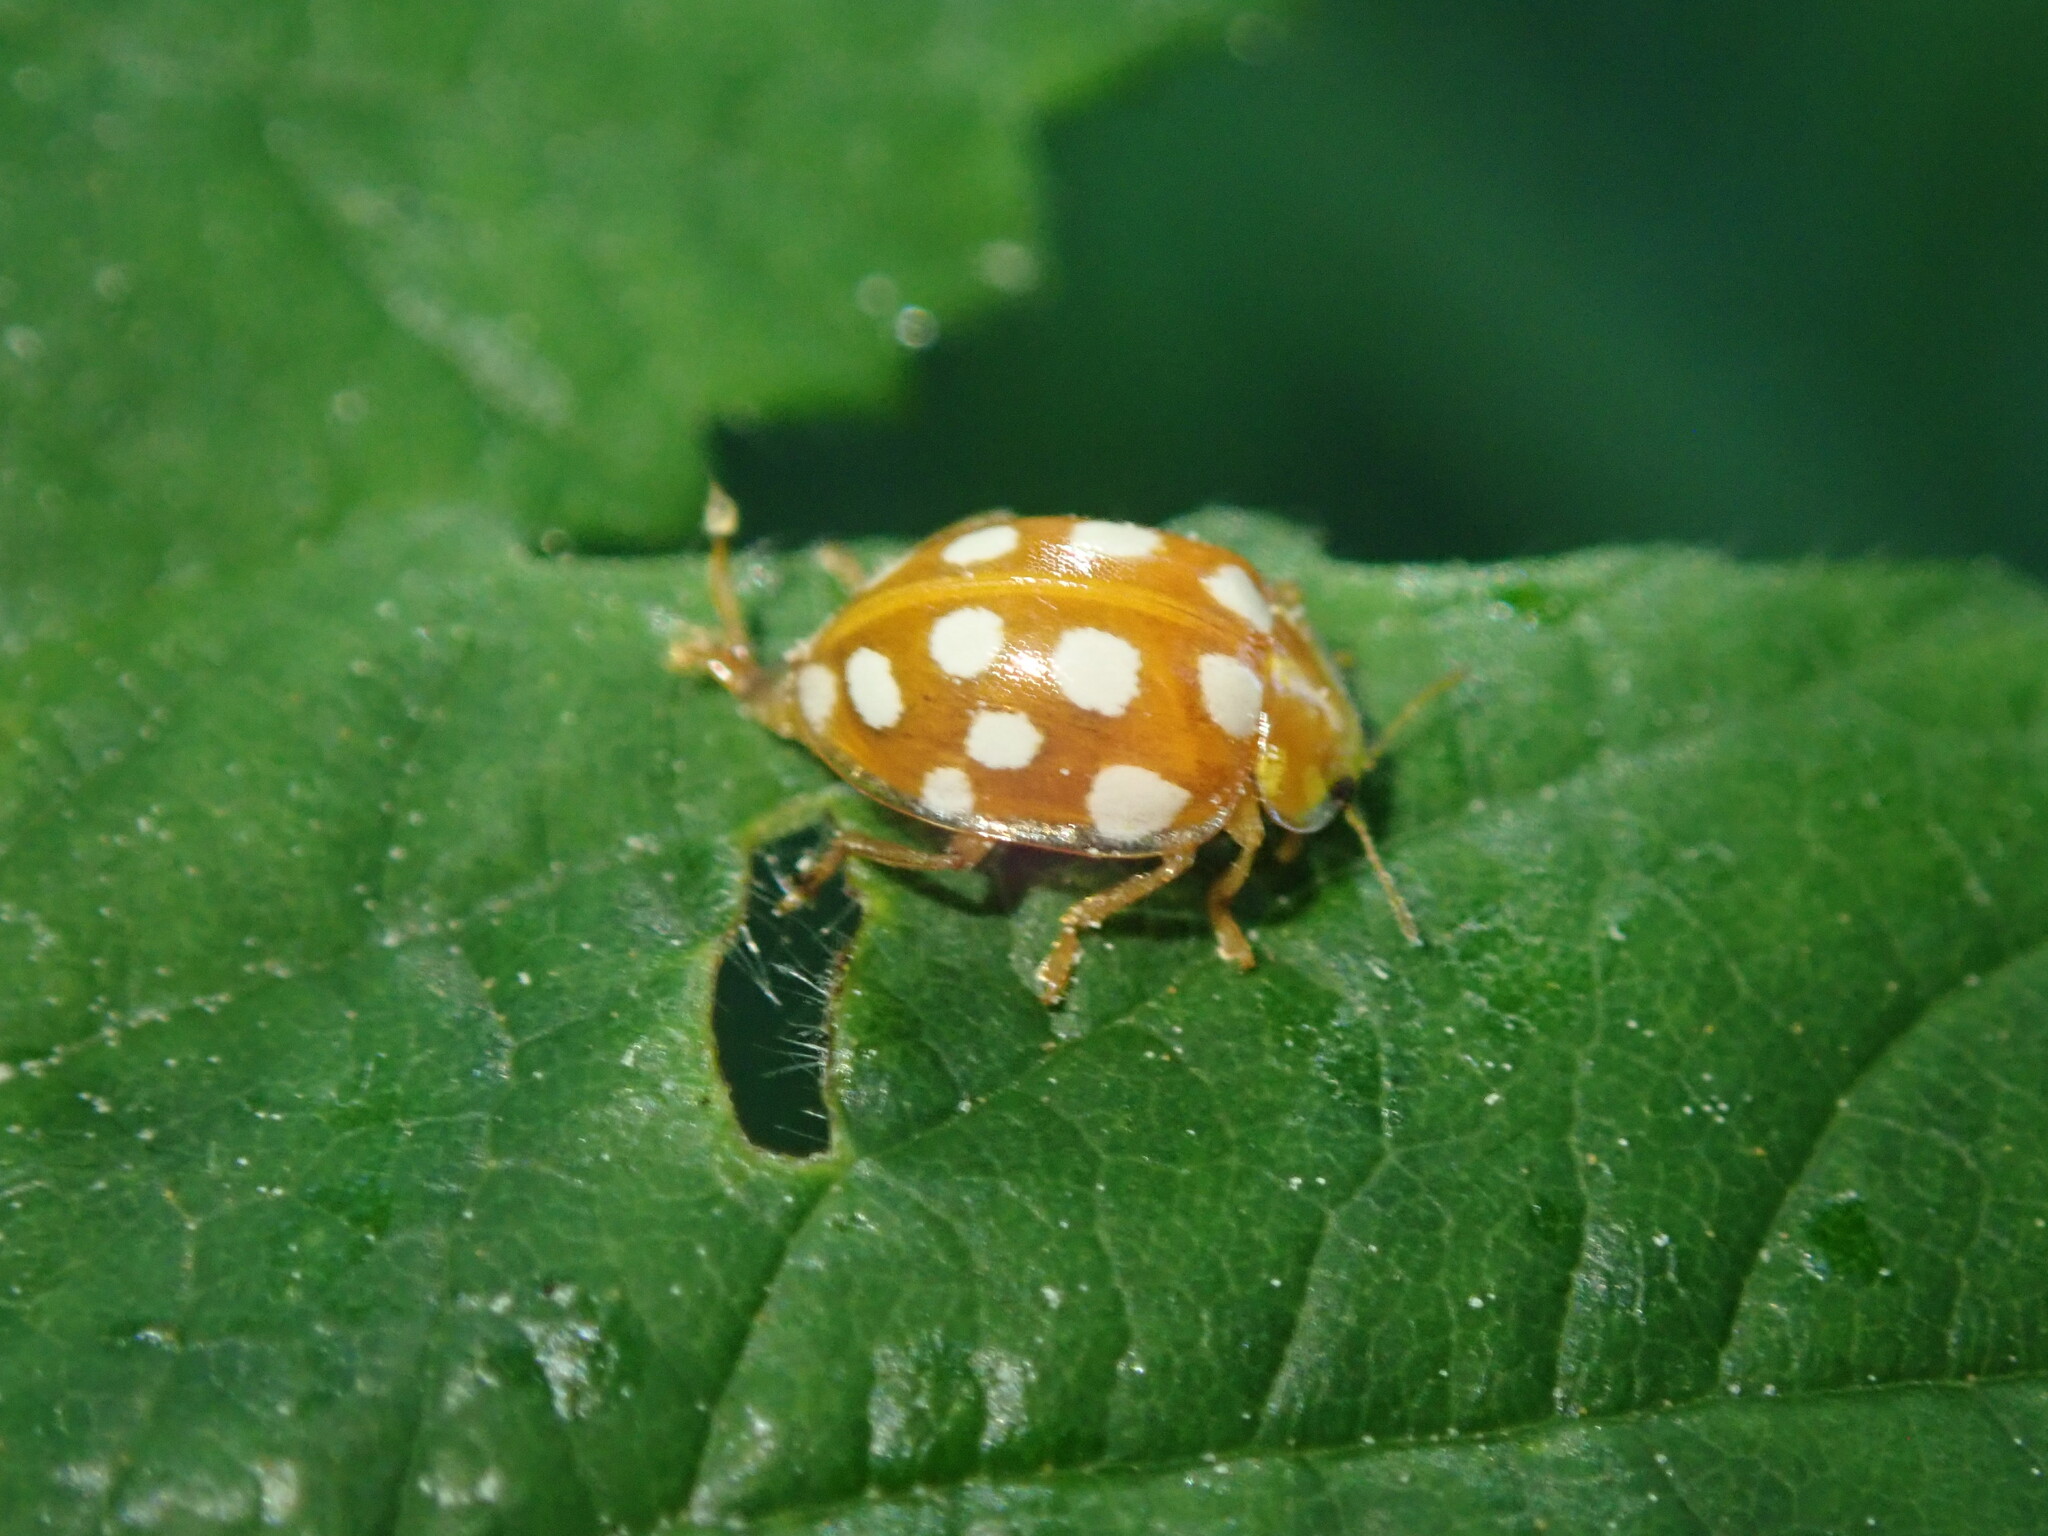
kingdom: Animalia
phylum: Arthropoda
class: Insecta
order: Coleoptera
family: Coccinellidae
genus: Halyzia
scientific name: Halyzia sedecimguttata
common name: Orange ladybird
